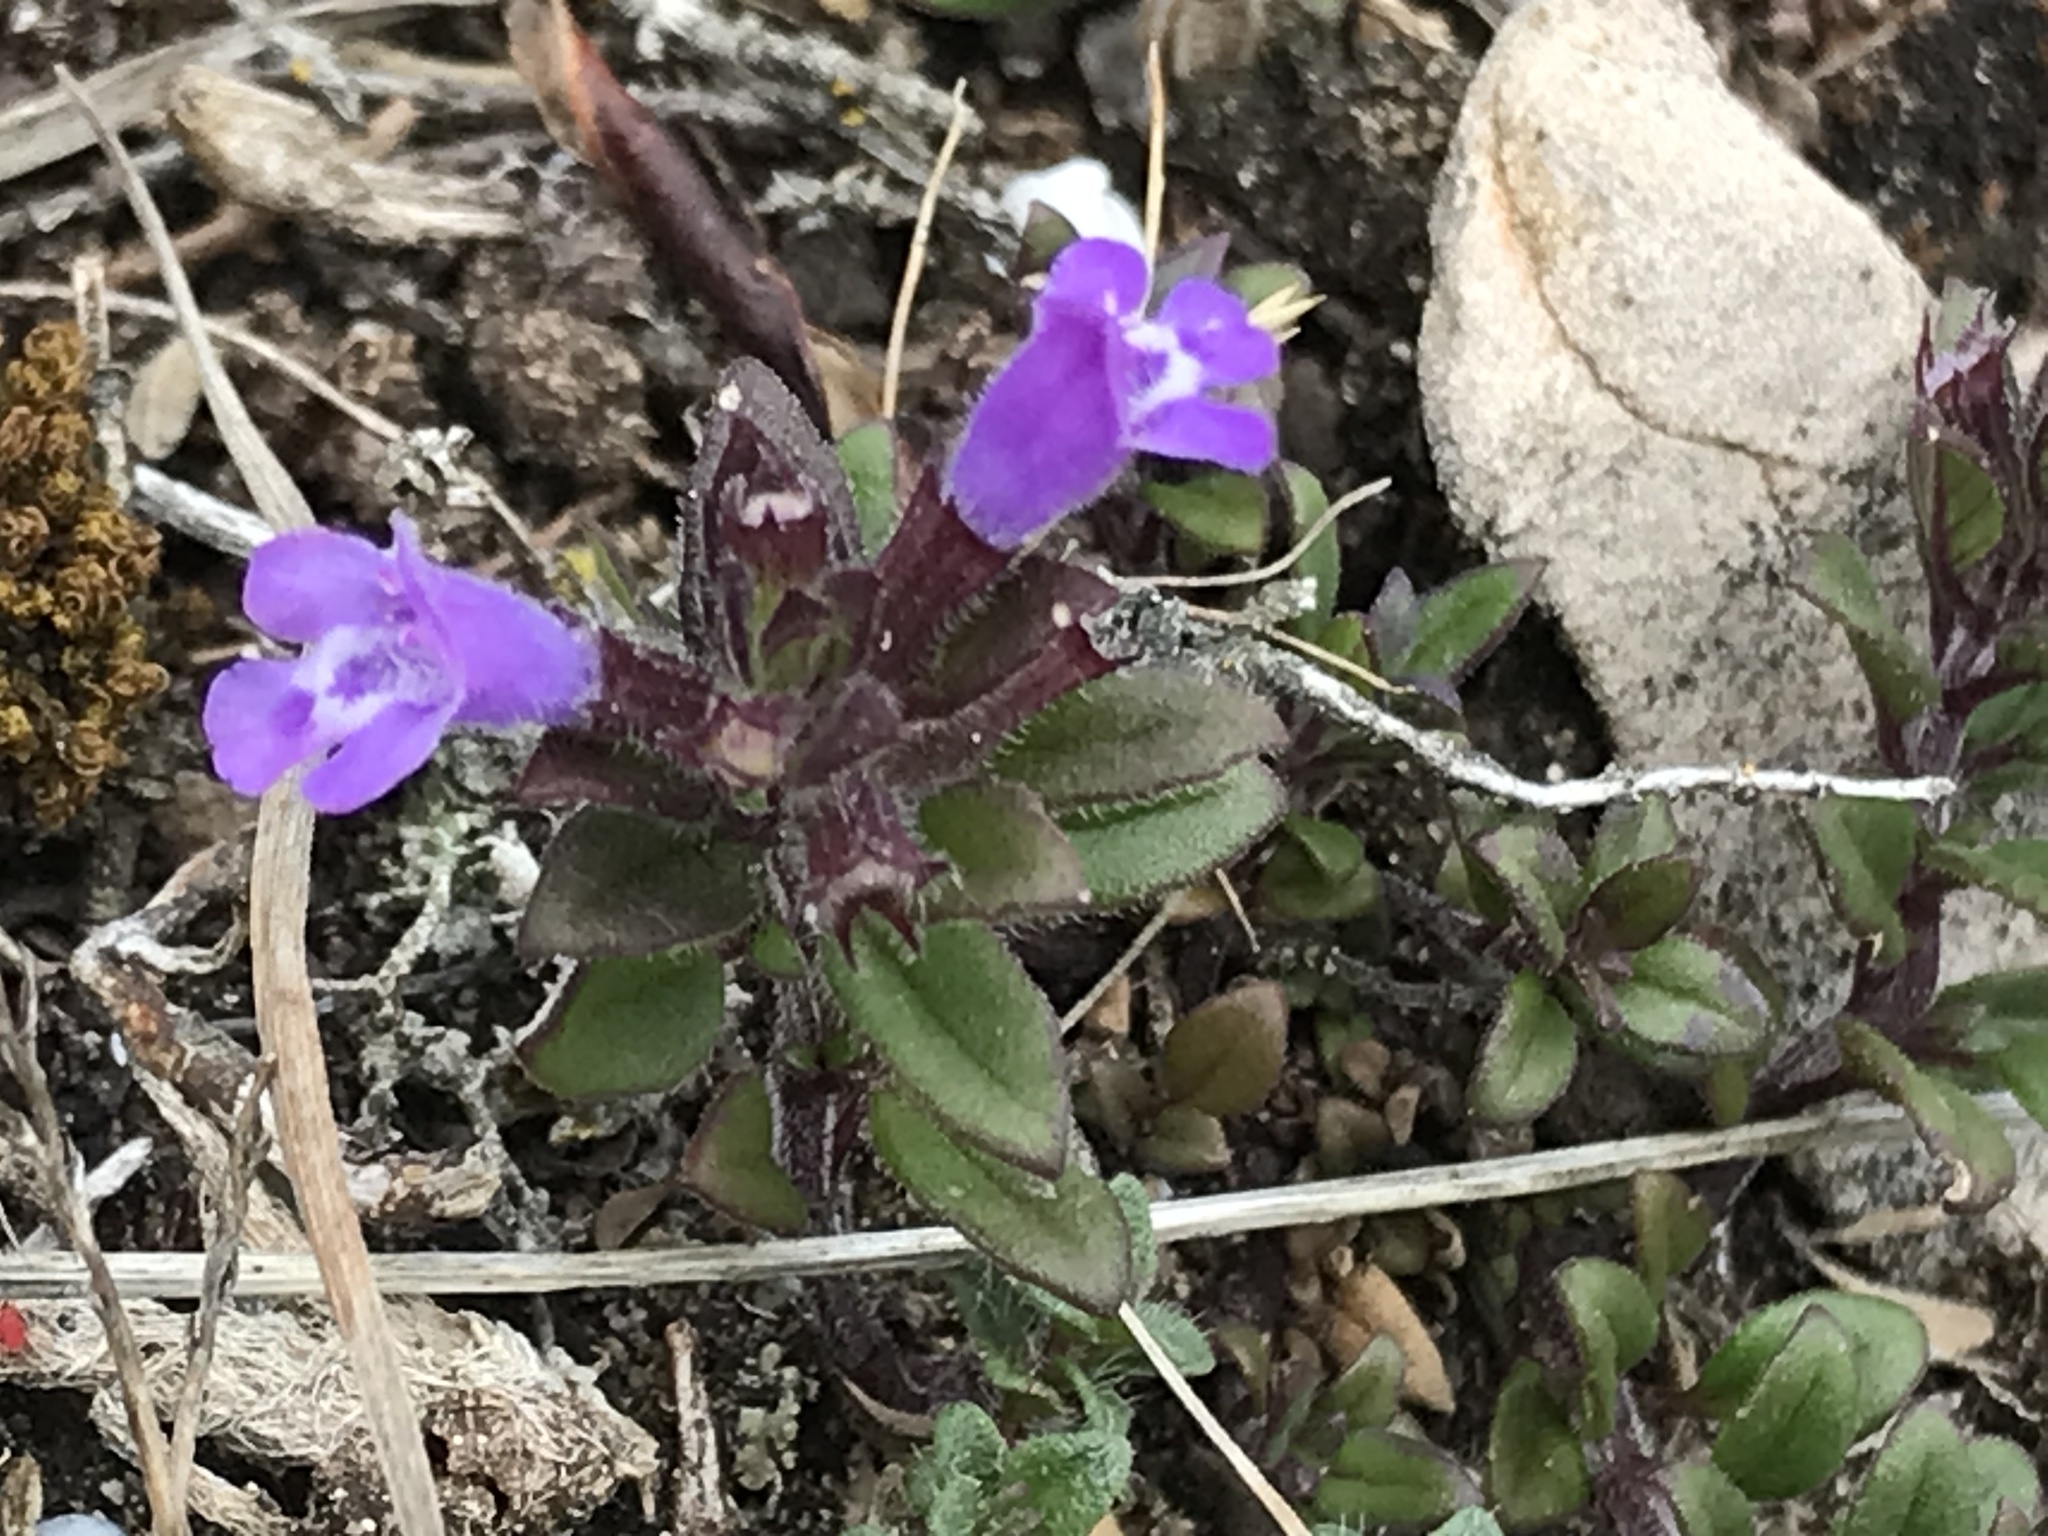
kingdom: Plantae
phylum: Tracheophyta
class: Magnoliopsida
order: Lamiales
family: Lamiaceae
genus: Clinopodium
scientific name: Clinopodium acinos
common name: Basil thyme
